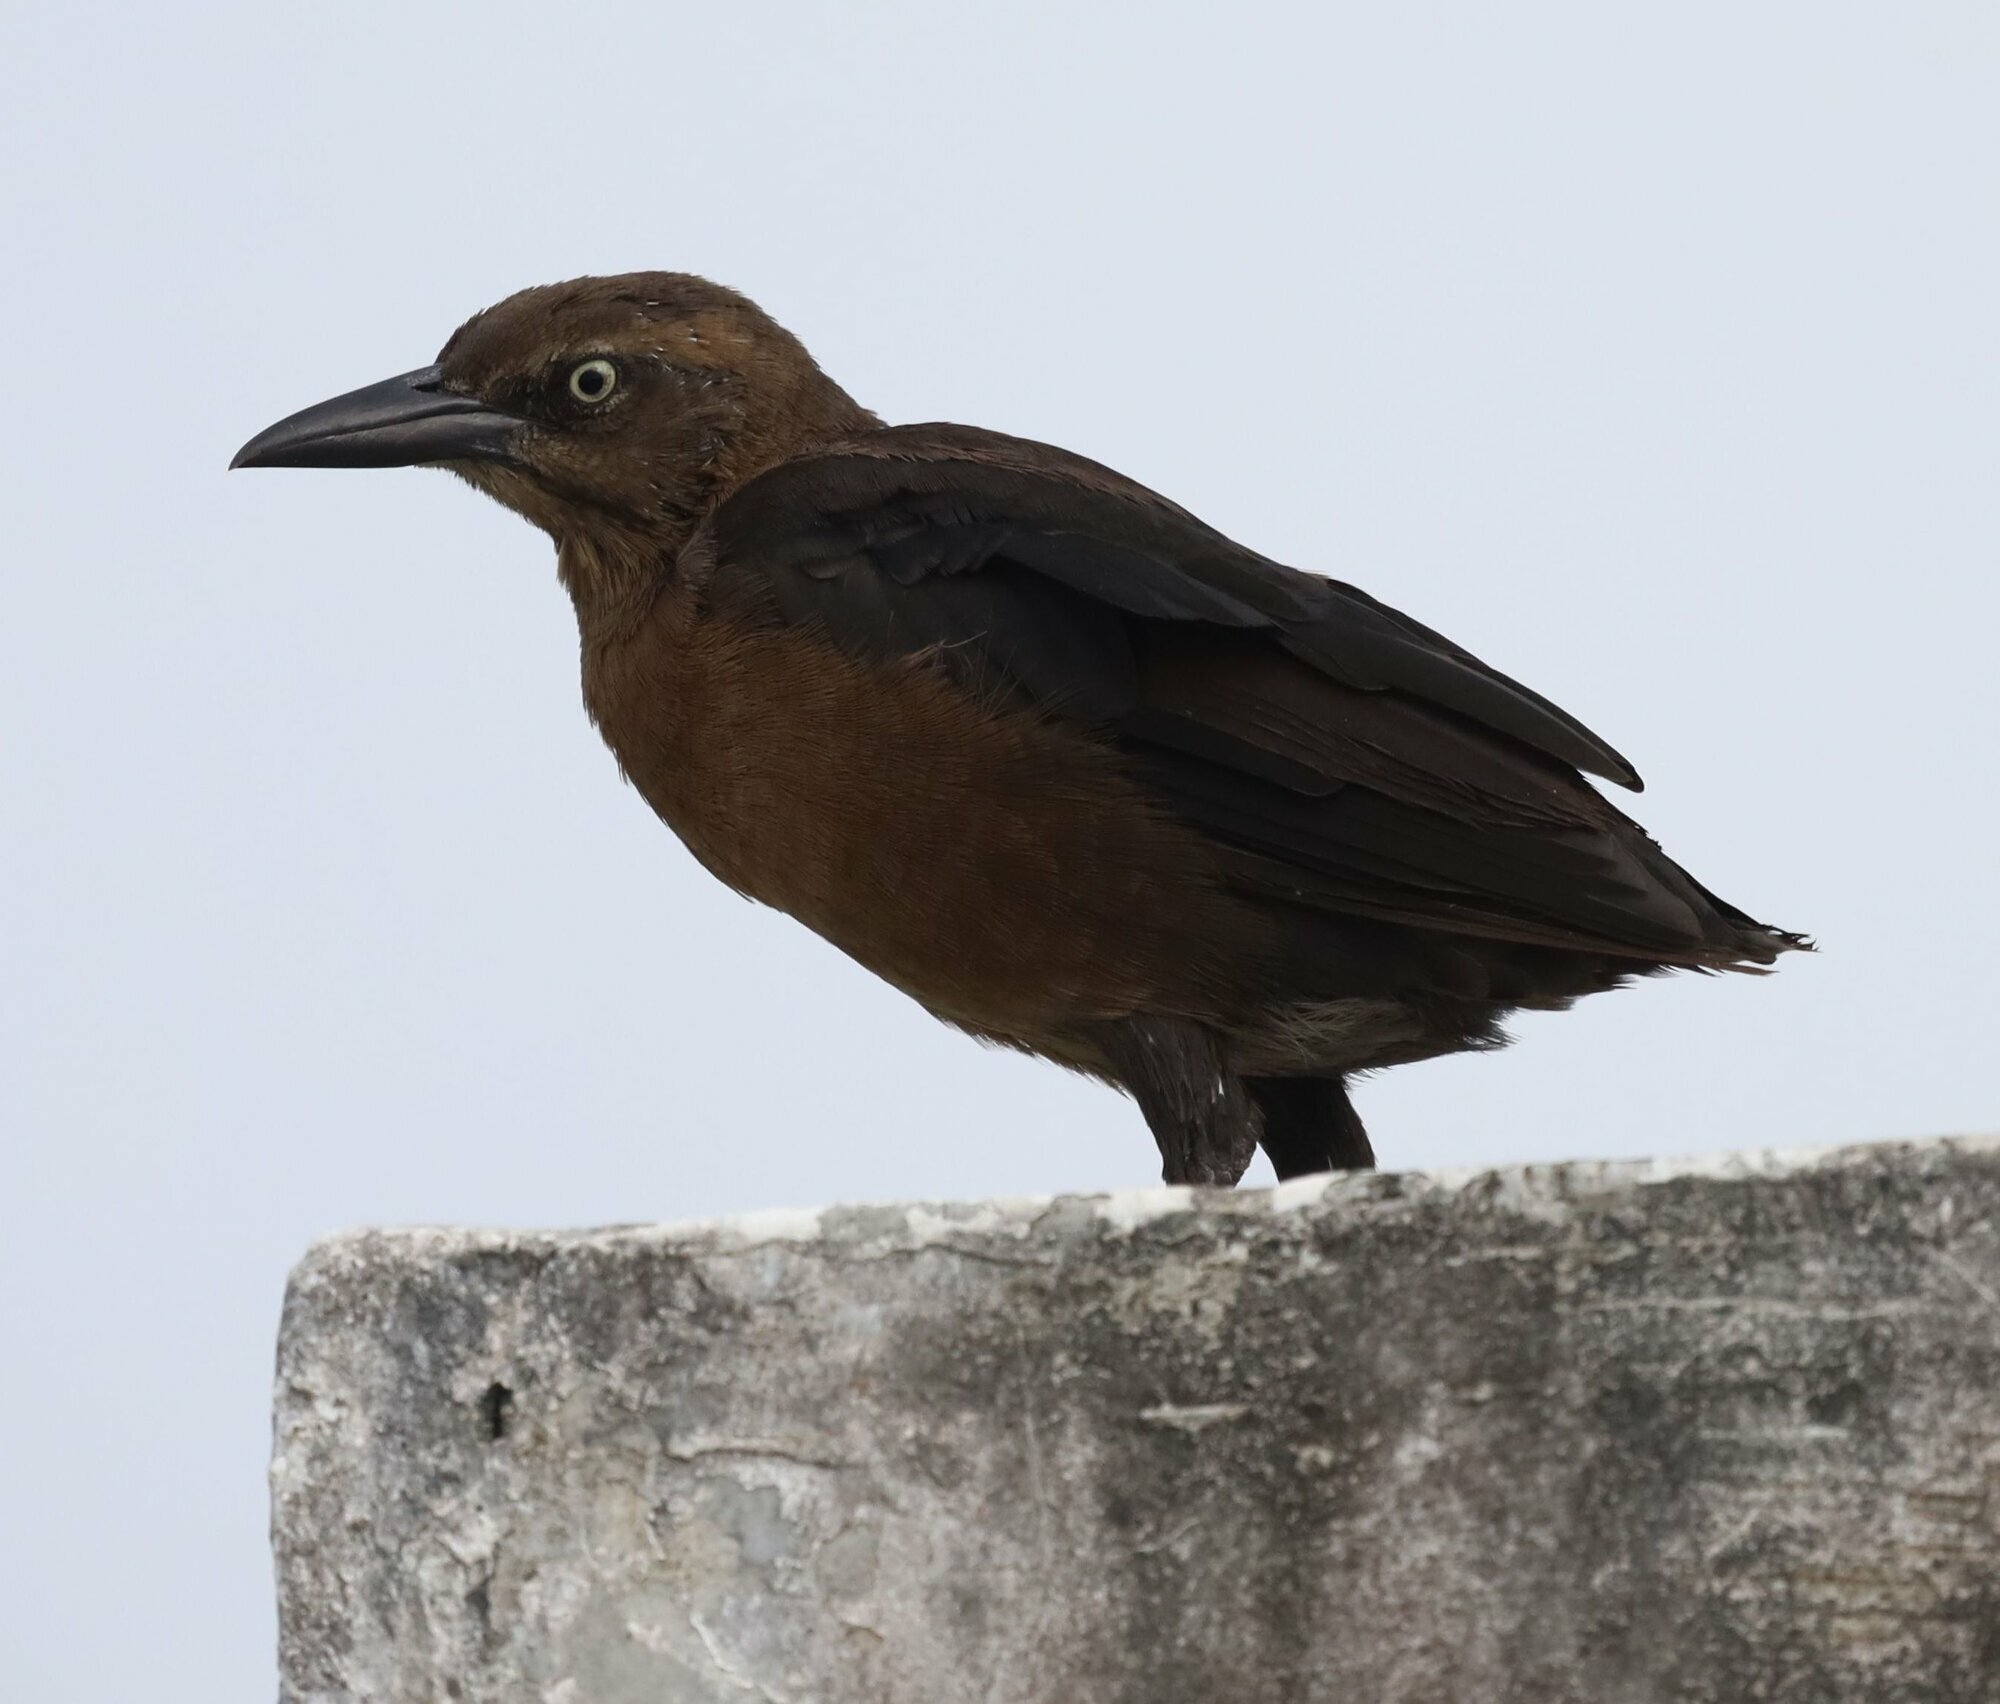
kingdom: Animalia
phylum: Chordata
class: Aves
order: Passeriformes
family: Icteridae
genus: Quiscalus
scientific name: Quiscalus mexicanus
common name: Great-tailed grackle
